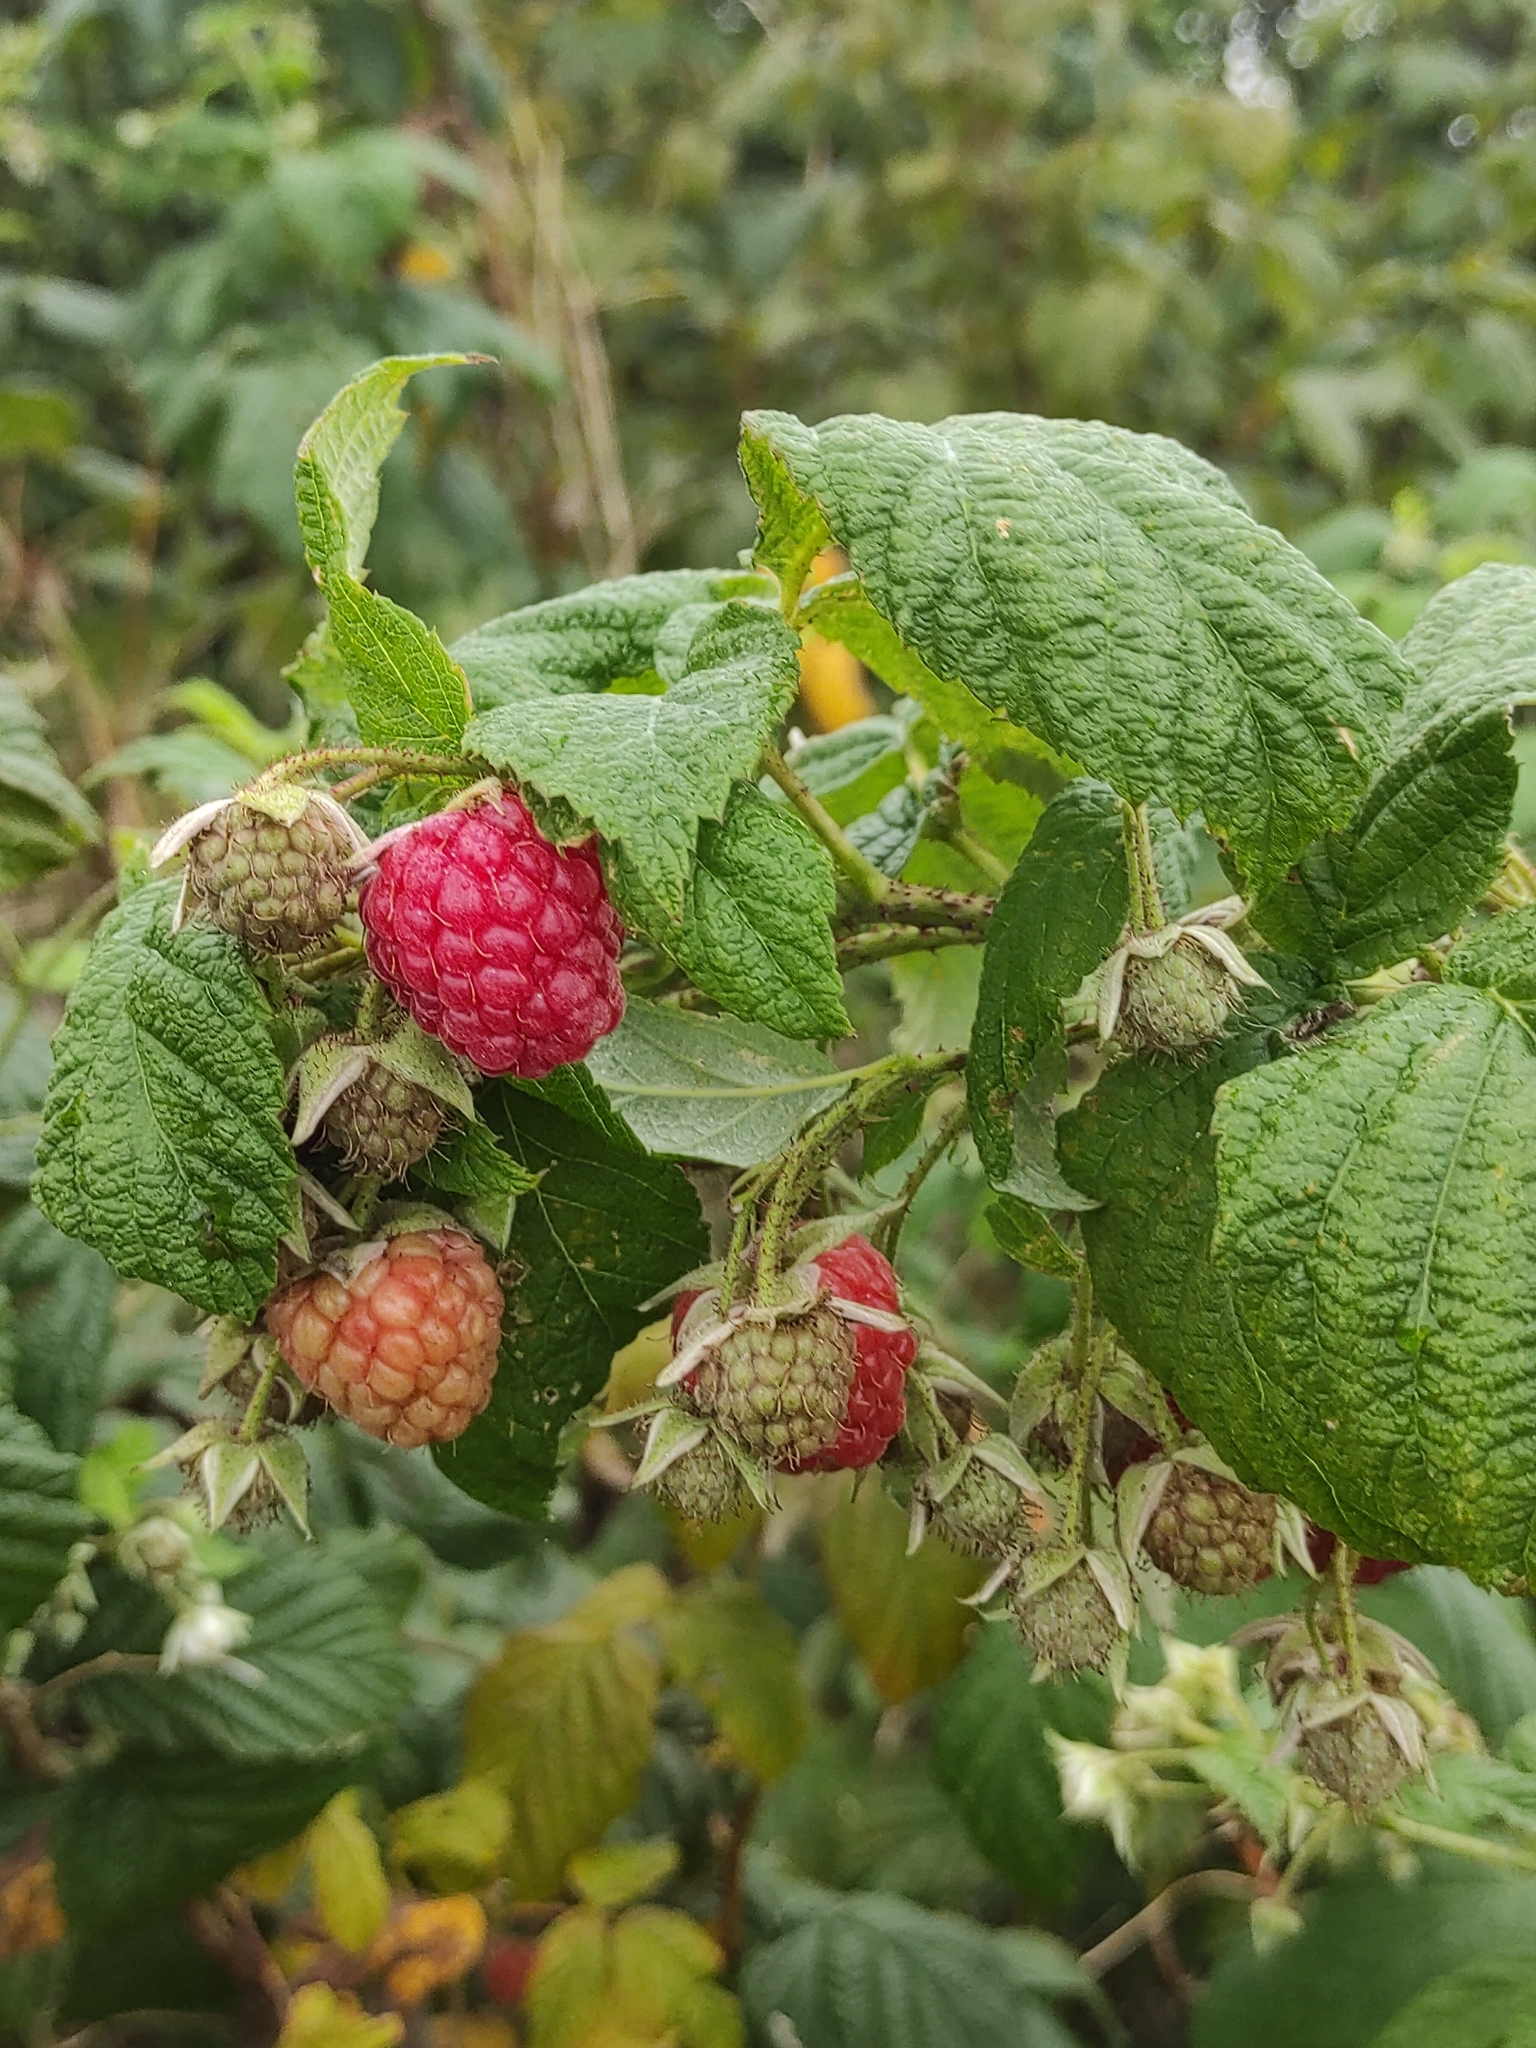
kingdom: Plantae
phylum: Tracheophyta
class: Magnoliopsida
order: Rosales
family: Rosaceae
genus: Rubus
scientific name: Rubus idaeus
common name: Raspberry
